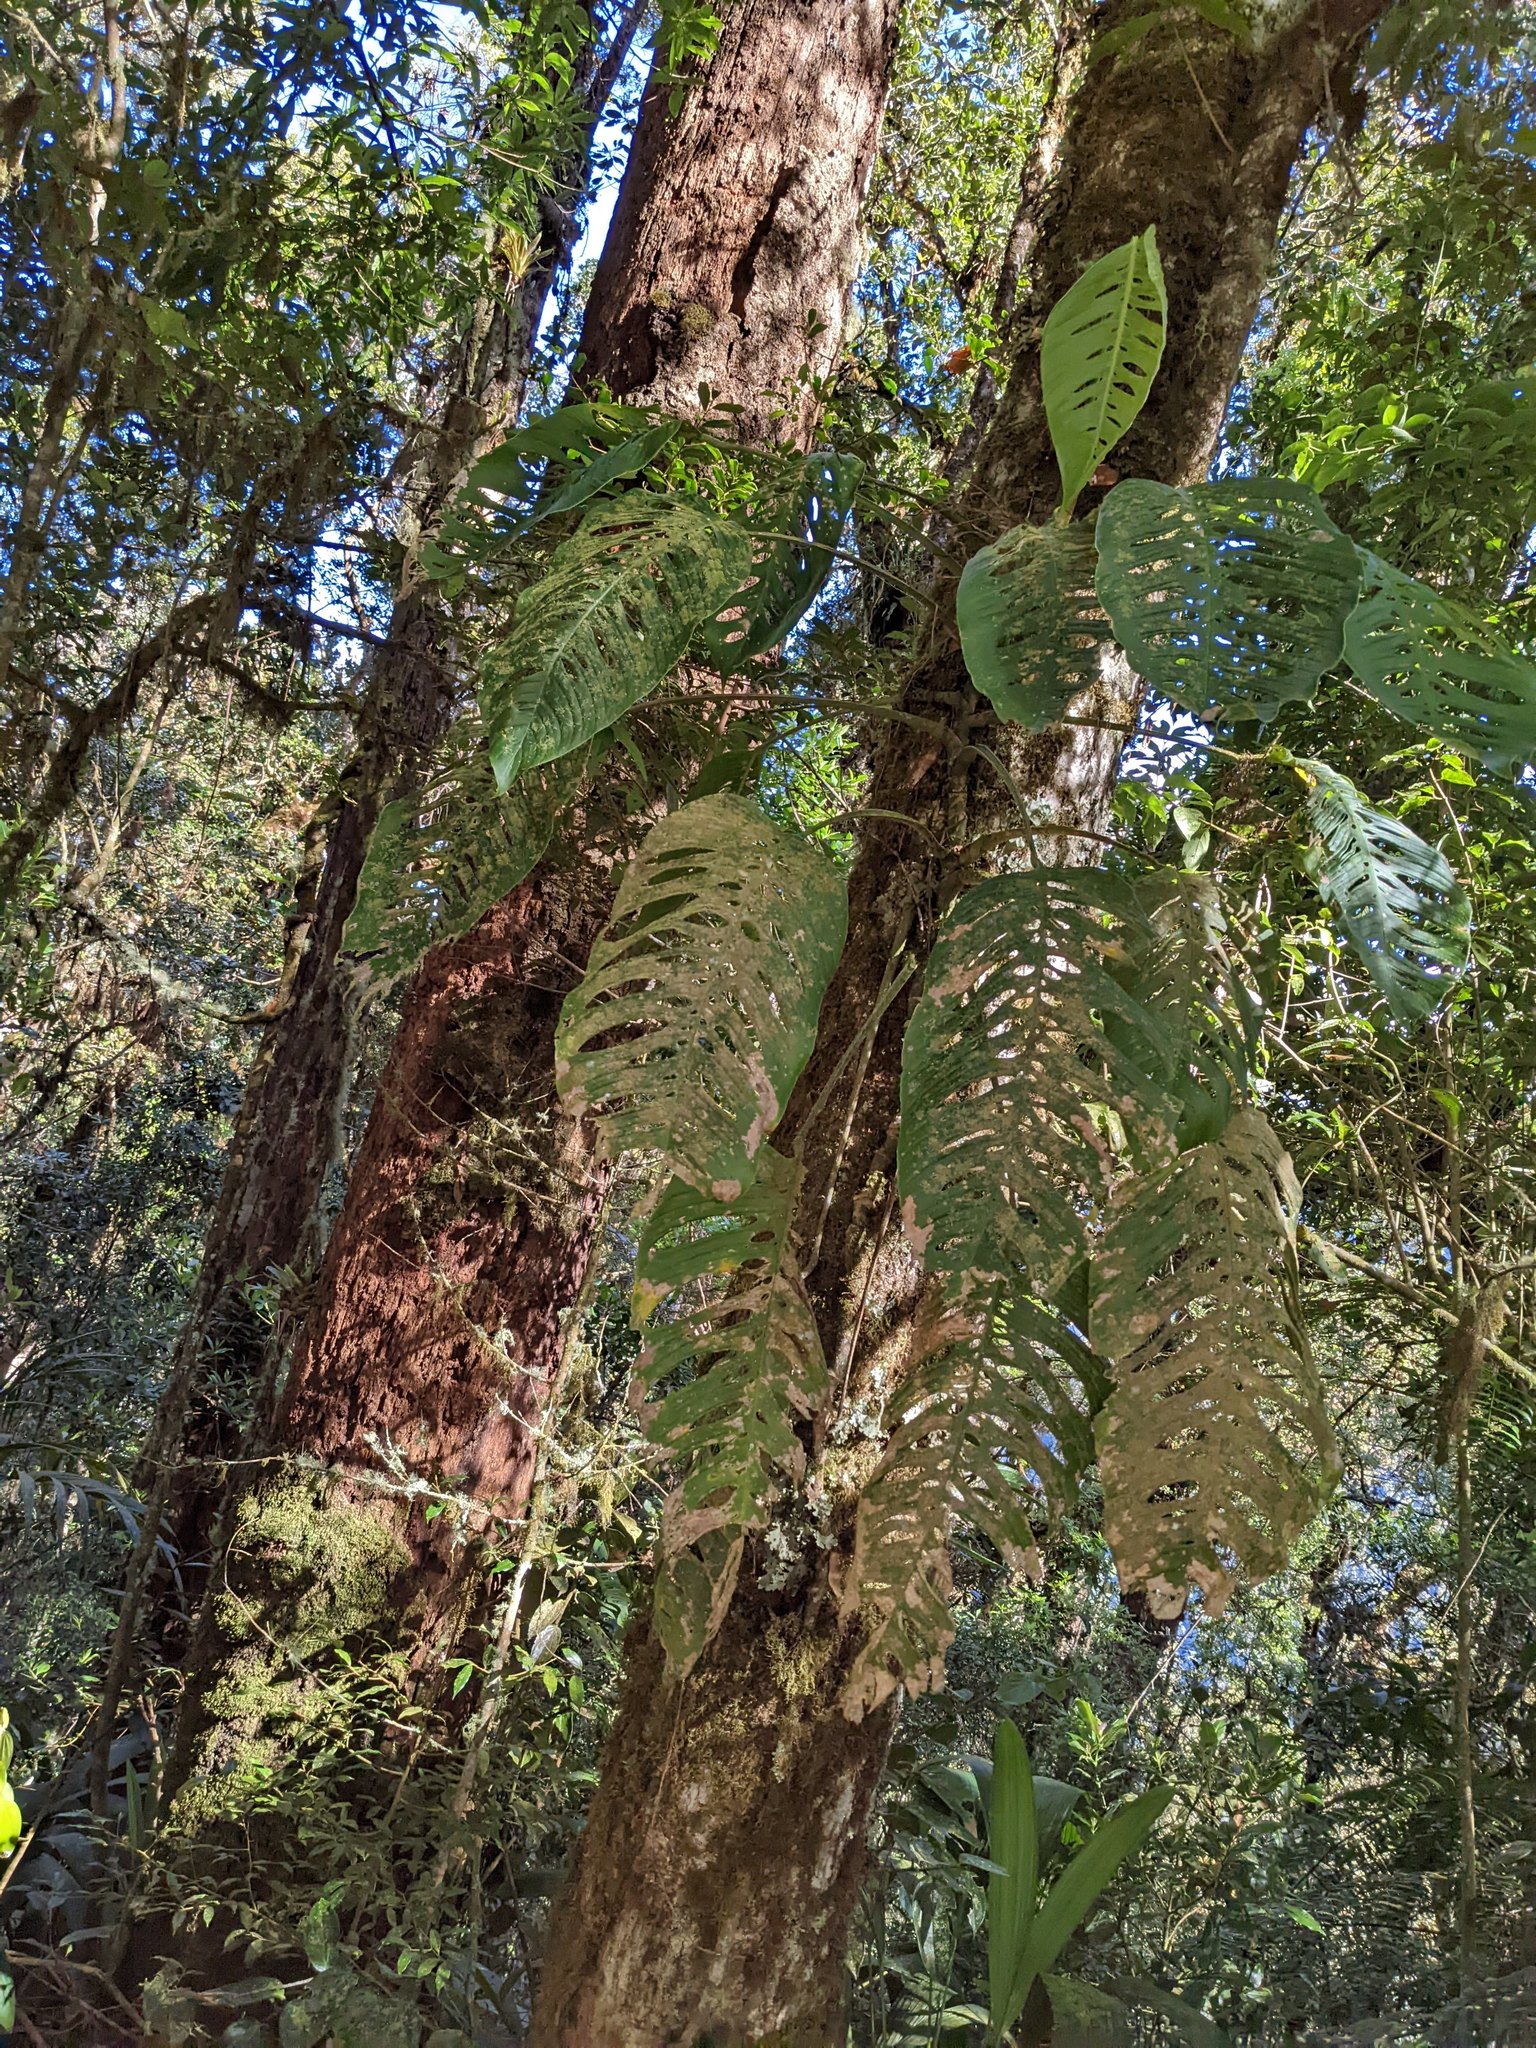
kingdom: Plantae
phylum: Tracheophyta
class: Liliopsida
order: Alismatales
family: Araceae
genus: Monstera
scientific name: Monstera oreophila
